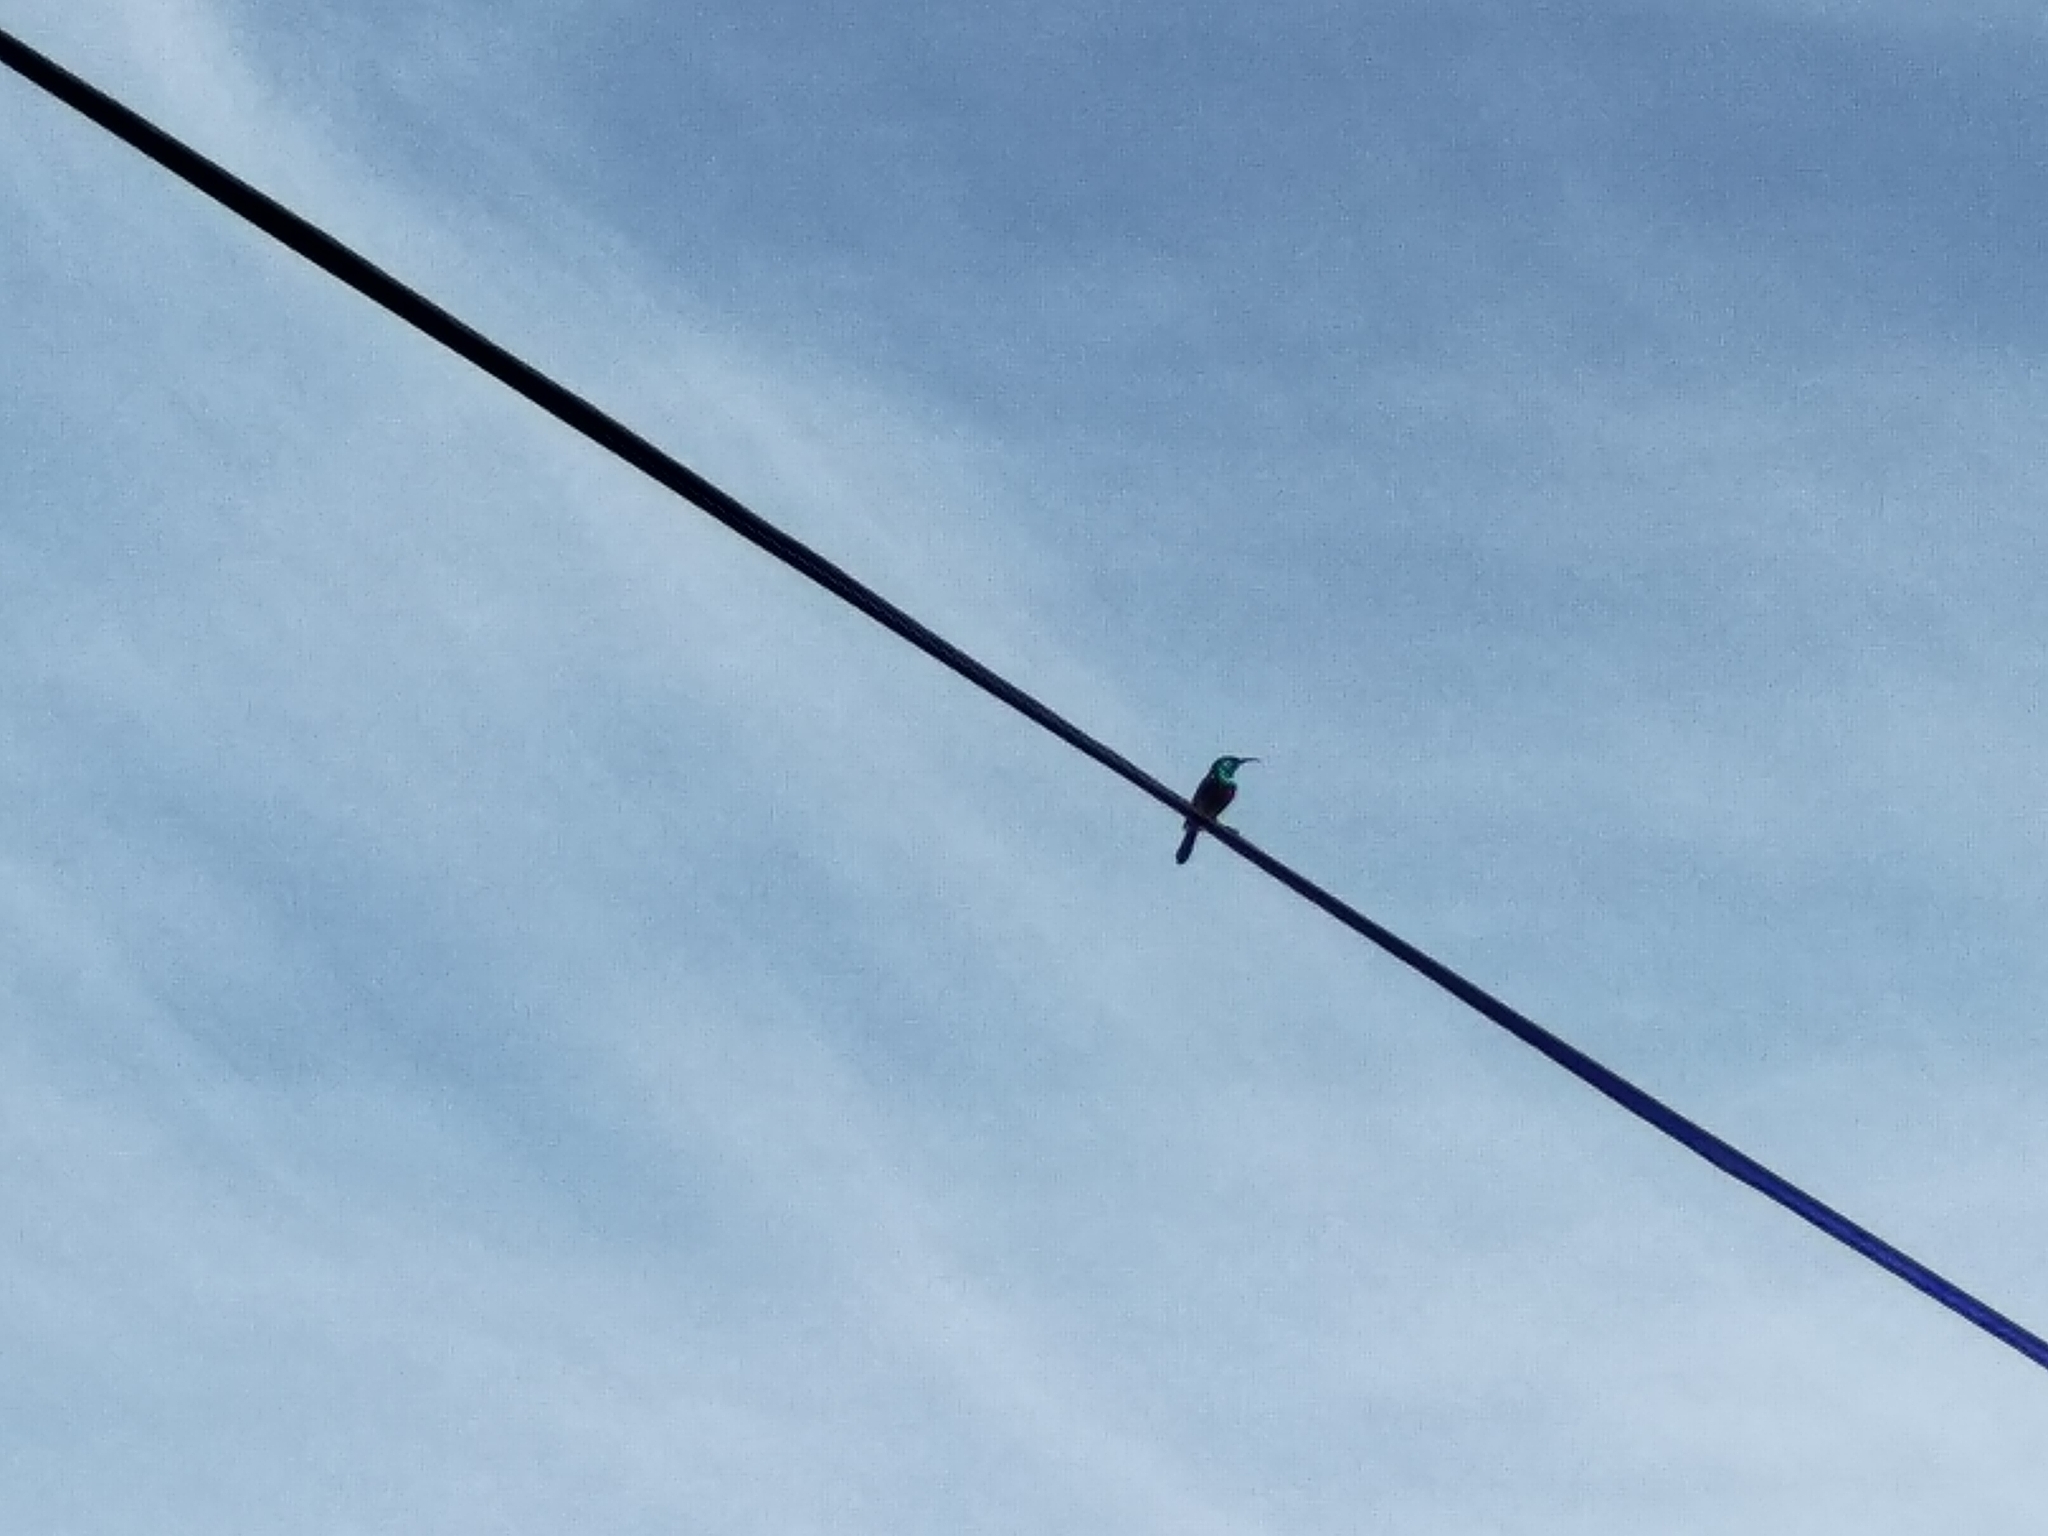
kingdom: Animalia
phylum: Chordata
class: Aves
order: Passeriformes
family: Nectariniidae
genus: Cinnyris
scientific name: Cinnyris chalybeus
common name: Southern double-collared sunbird
